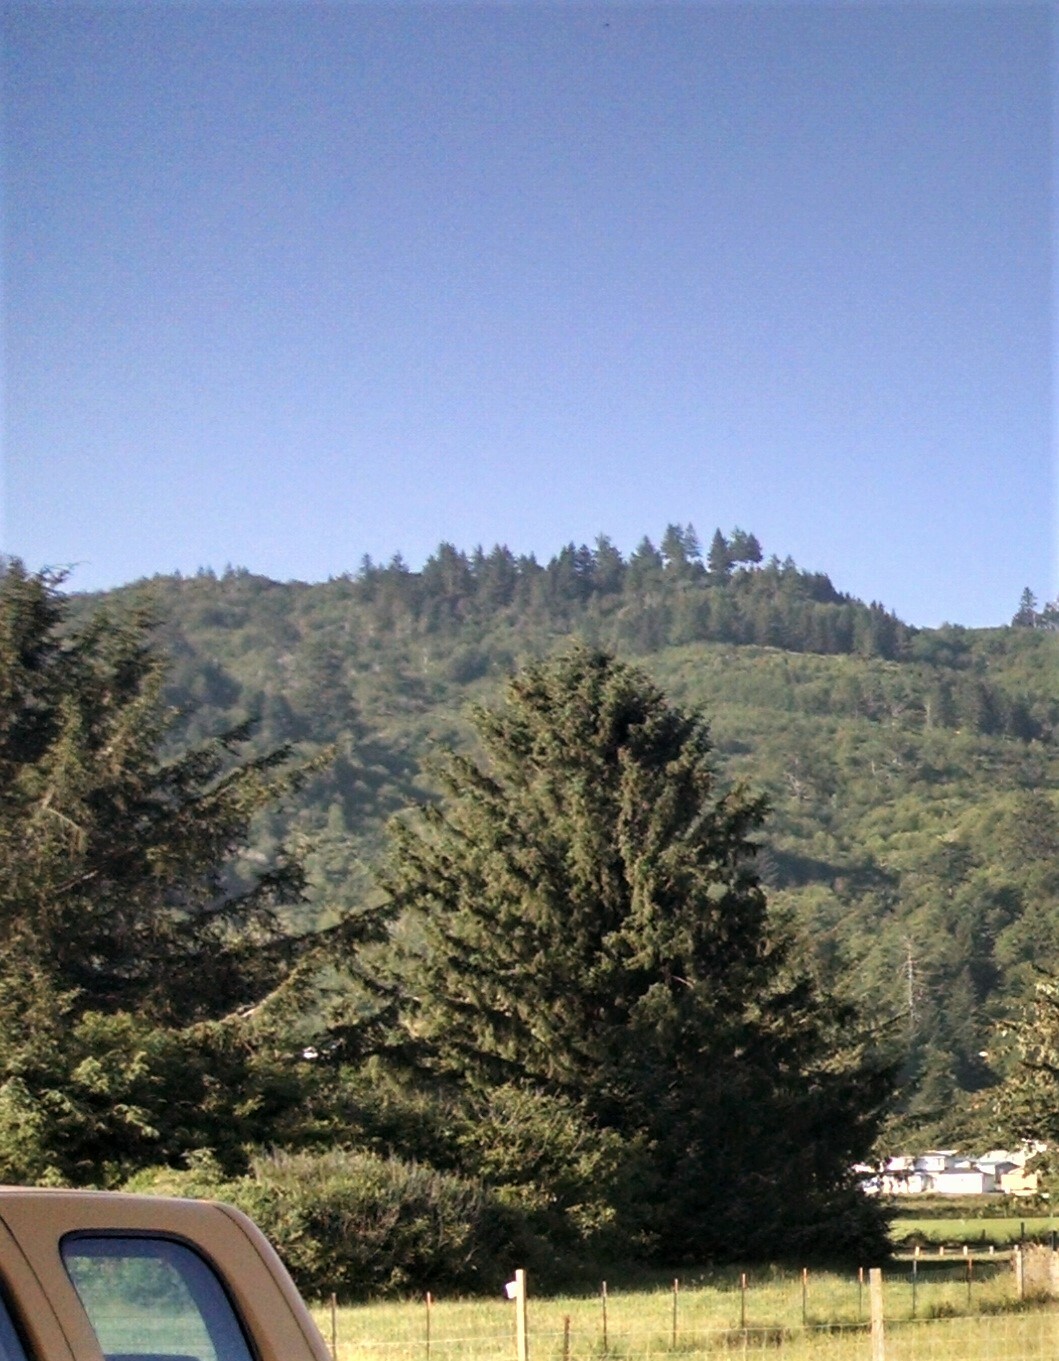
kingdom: Plantae
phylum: Tracheophyta
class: Pinopsida
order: Pinales
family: Pinaceae
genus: Picea
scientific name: Picea sitchensis
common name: Sitka spruce
